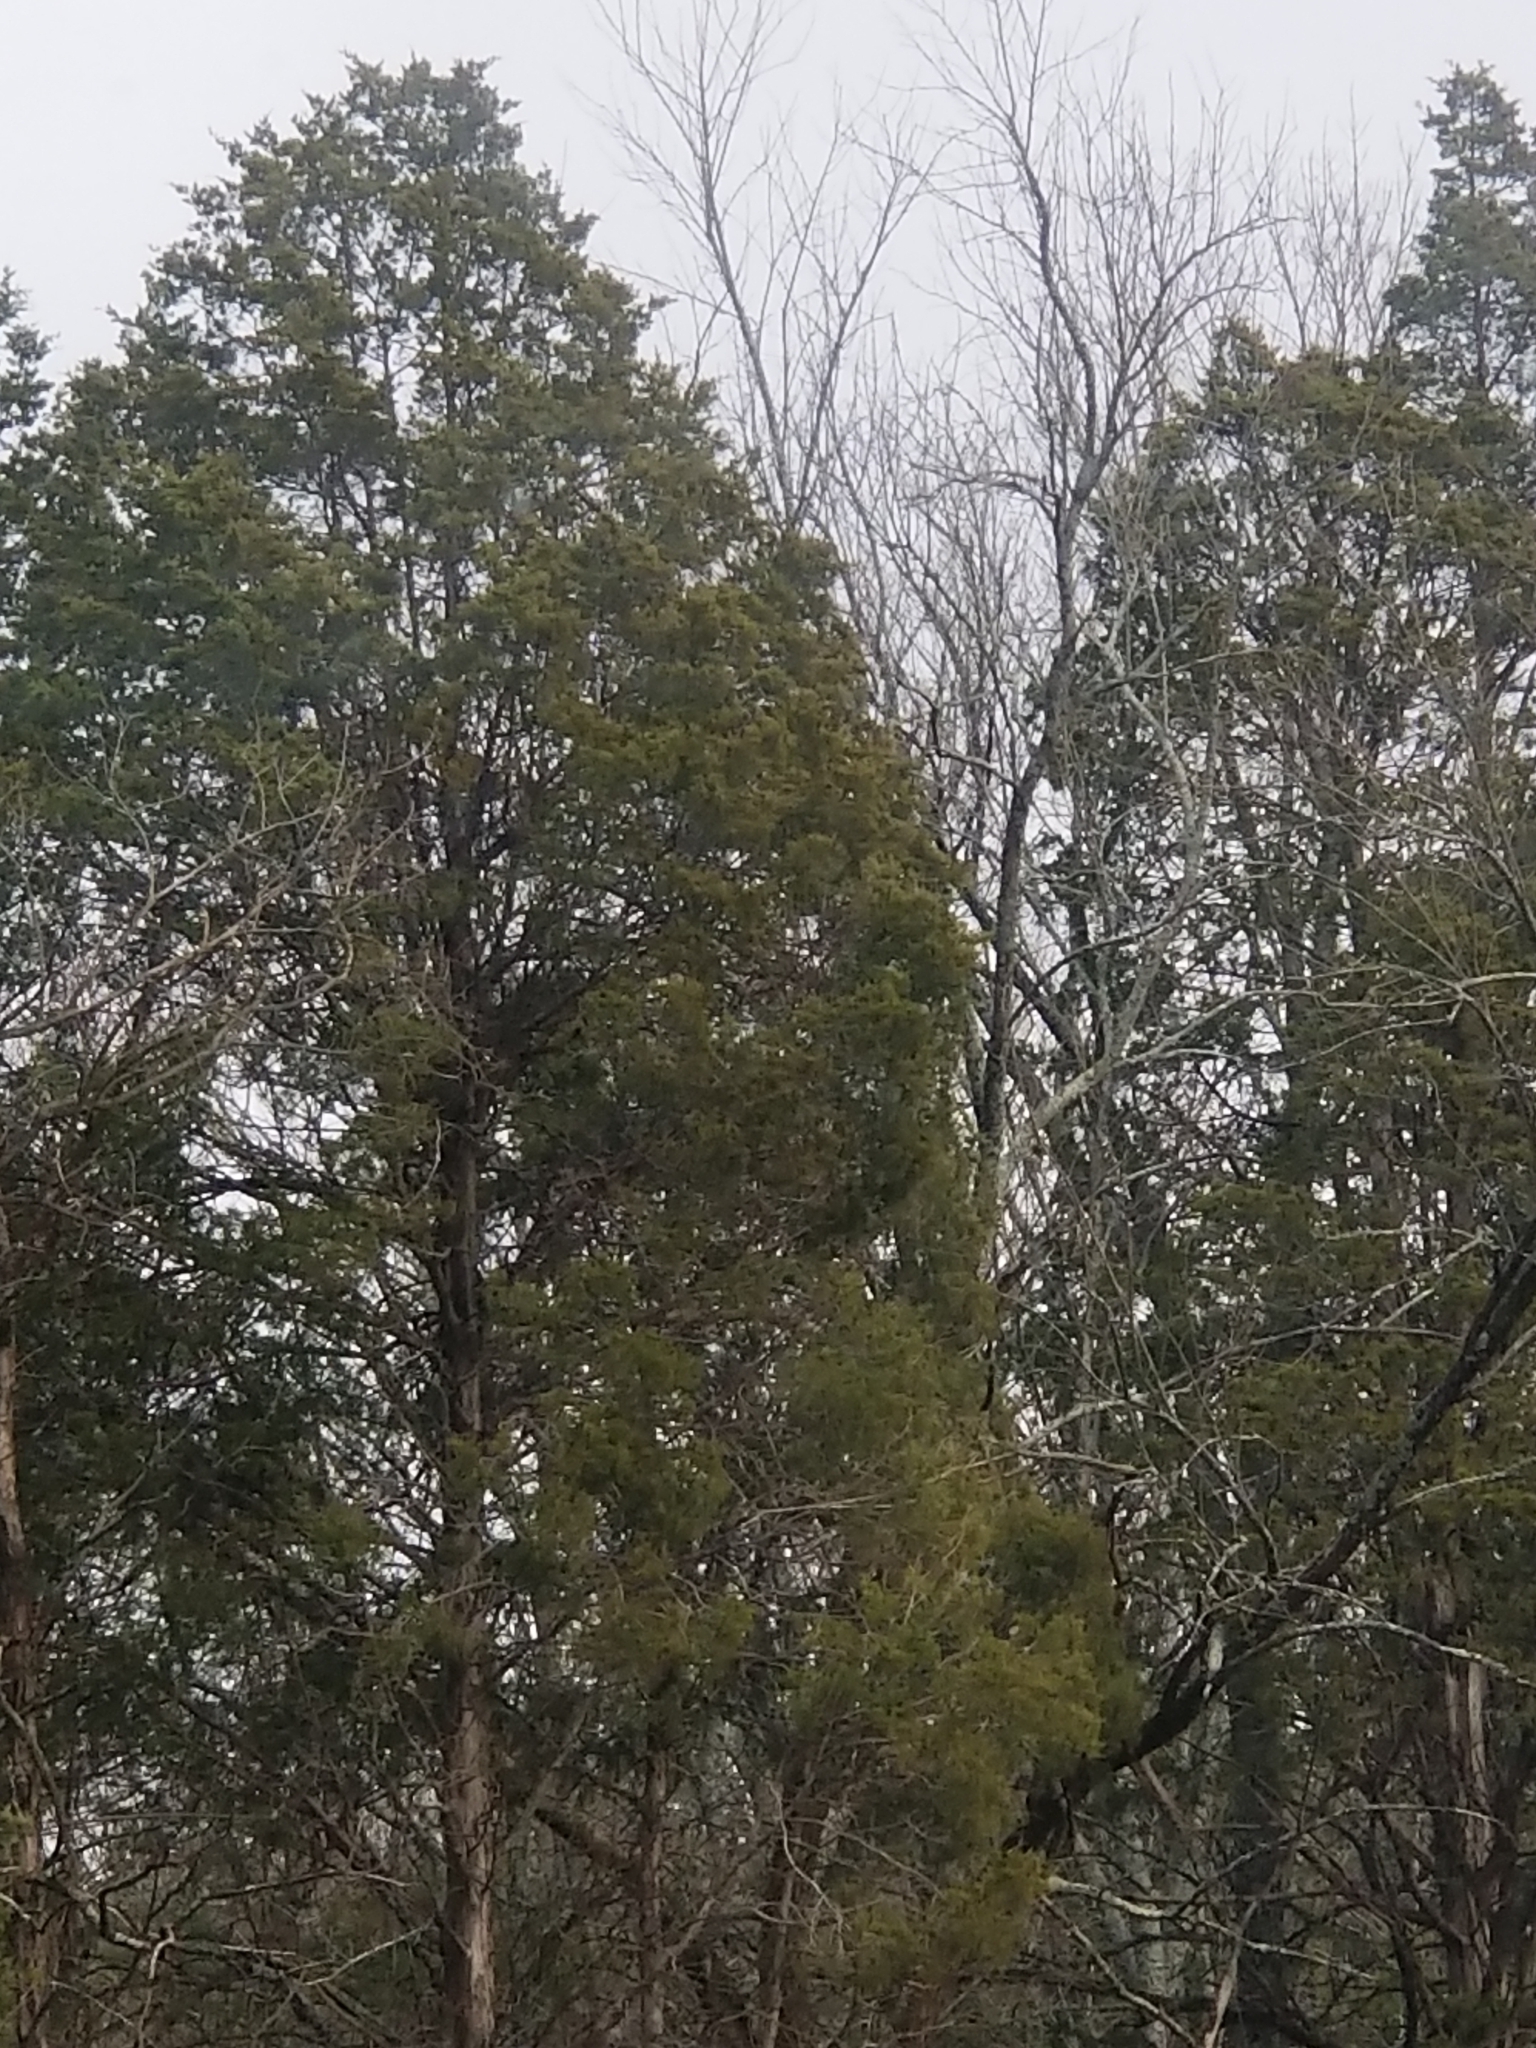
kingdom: Plantae
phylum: Tracheophyta
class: Pinopsida
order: Pinales
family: Cupressaceae
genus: Juniperus
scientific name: Juniperus virginiana
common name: Red juniper
